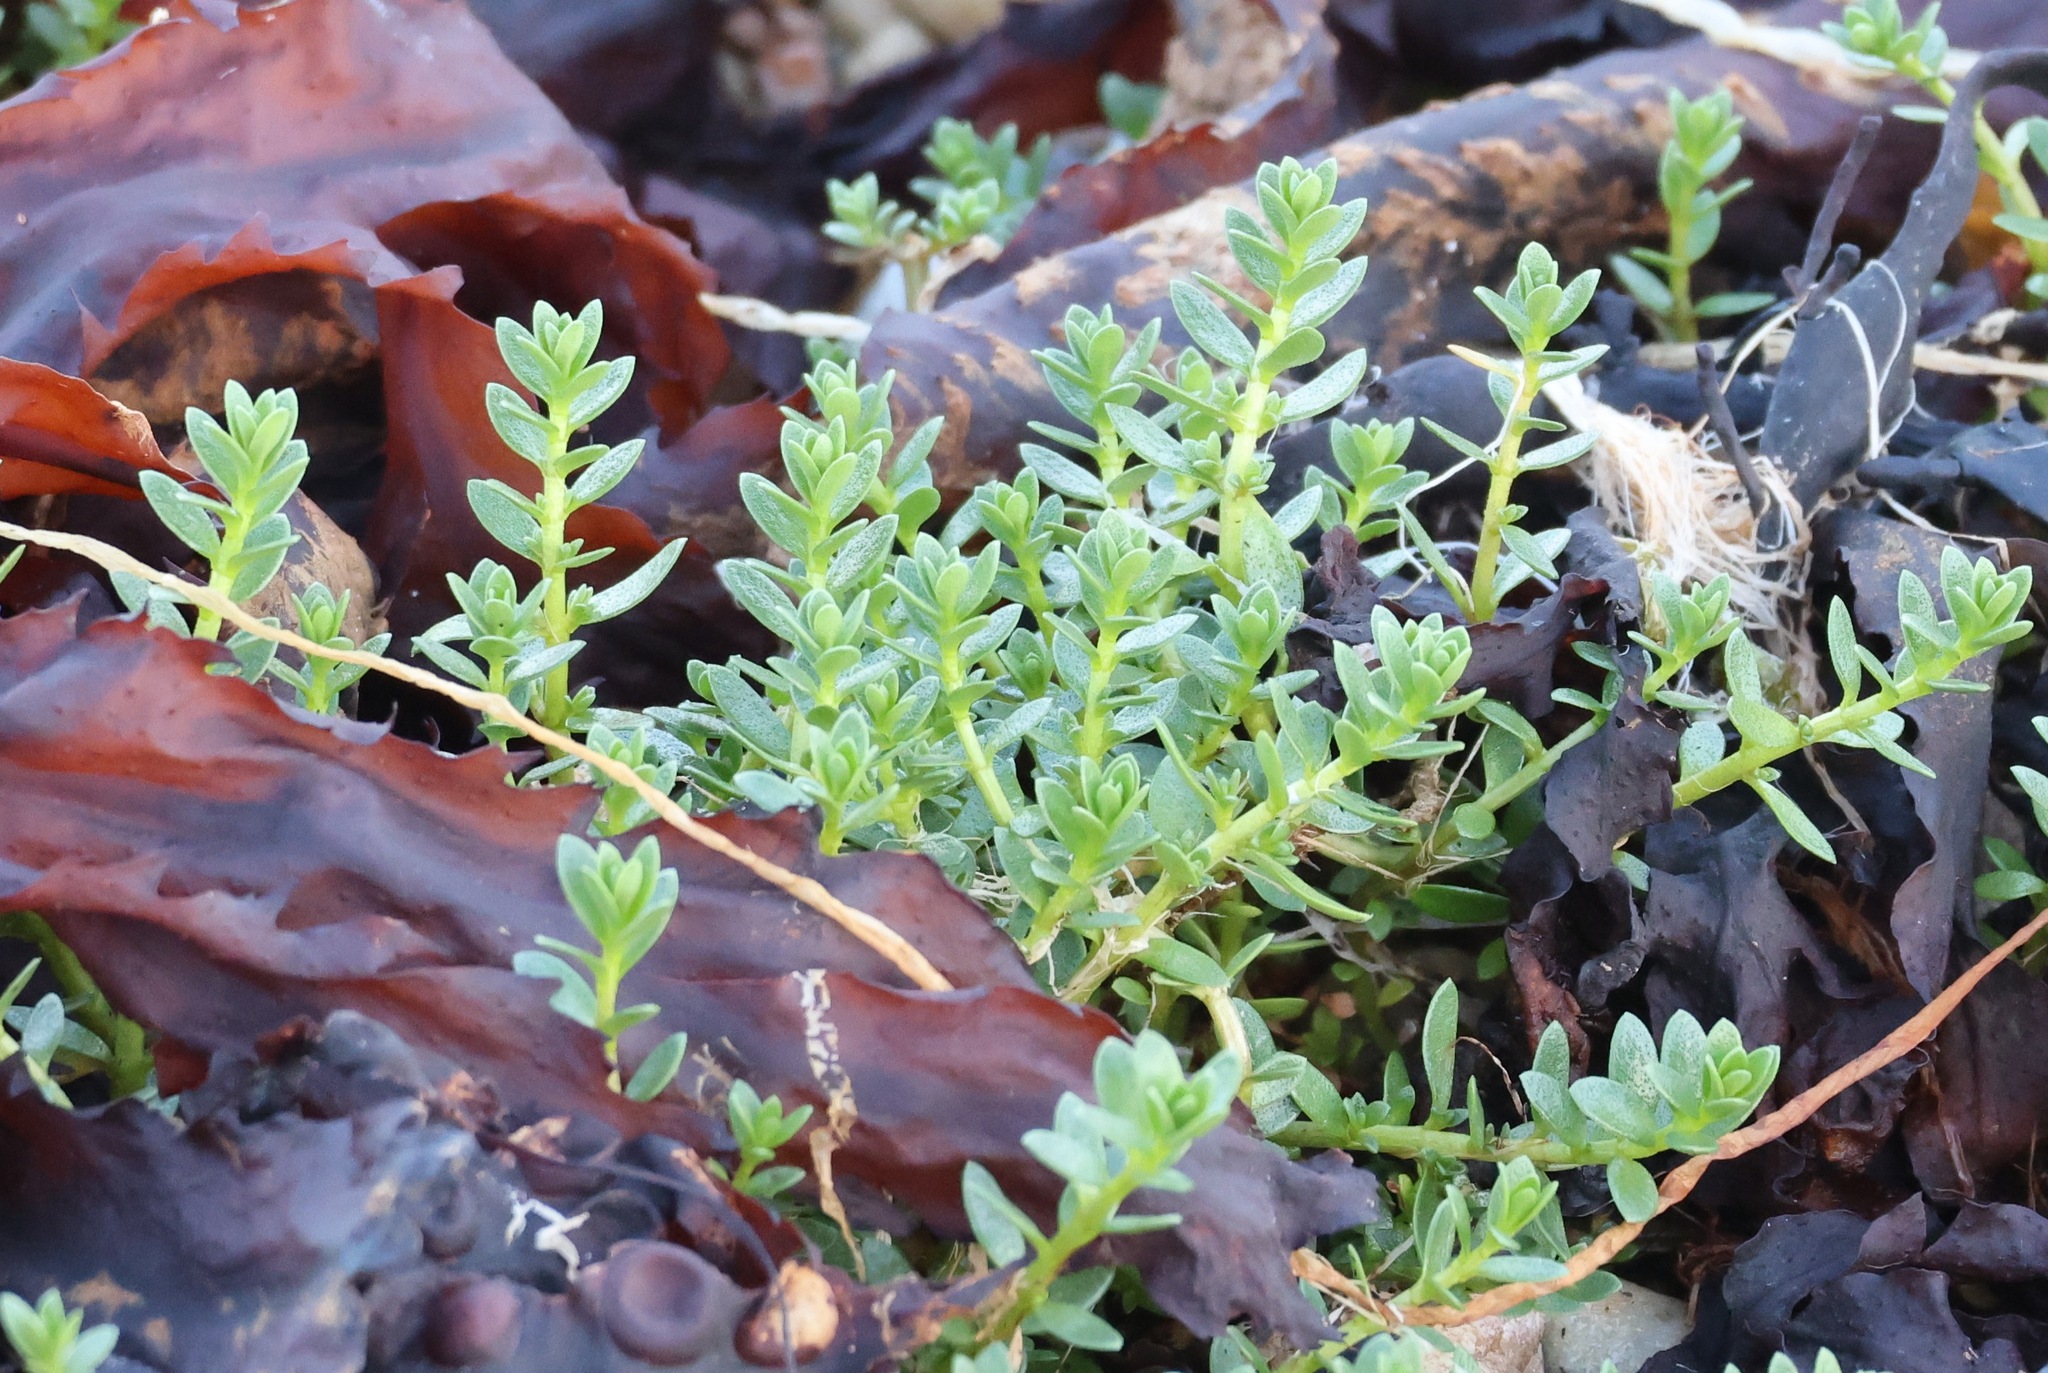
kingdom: Plantae
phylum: Tracheophyta
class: Magnoliopsida
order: Ericales
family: Primulaceae
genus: Lysimachia
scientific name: Lysimachia maritima
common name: Sea milkwort
